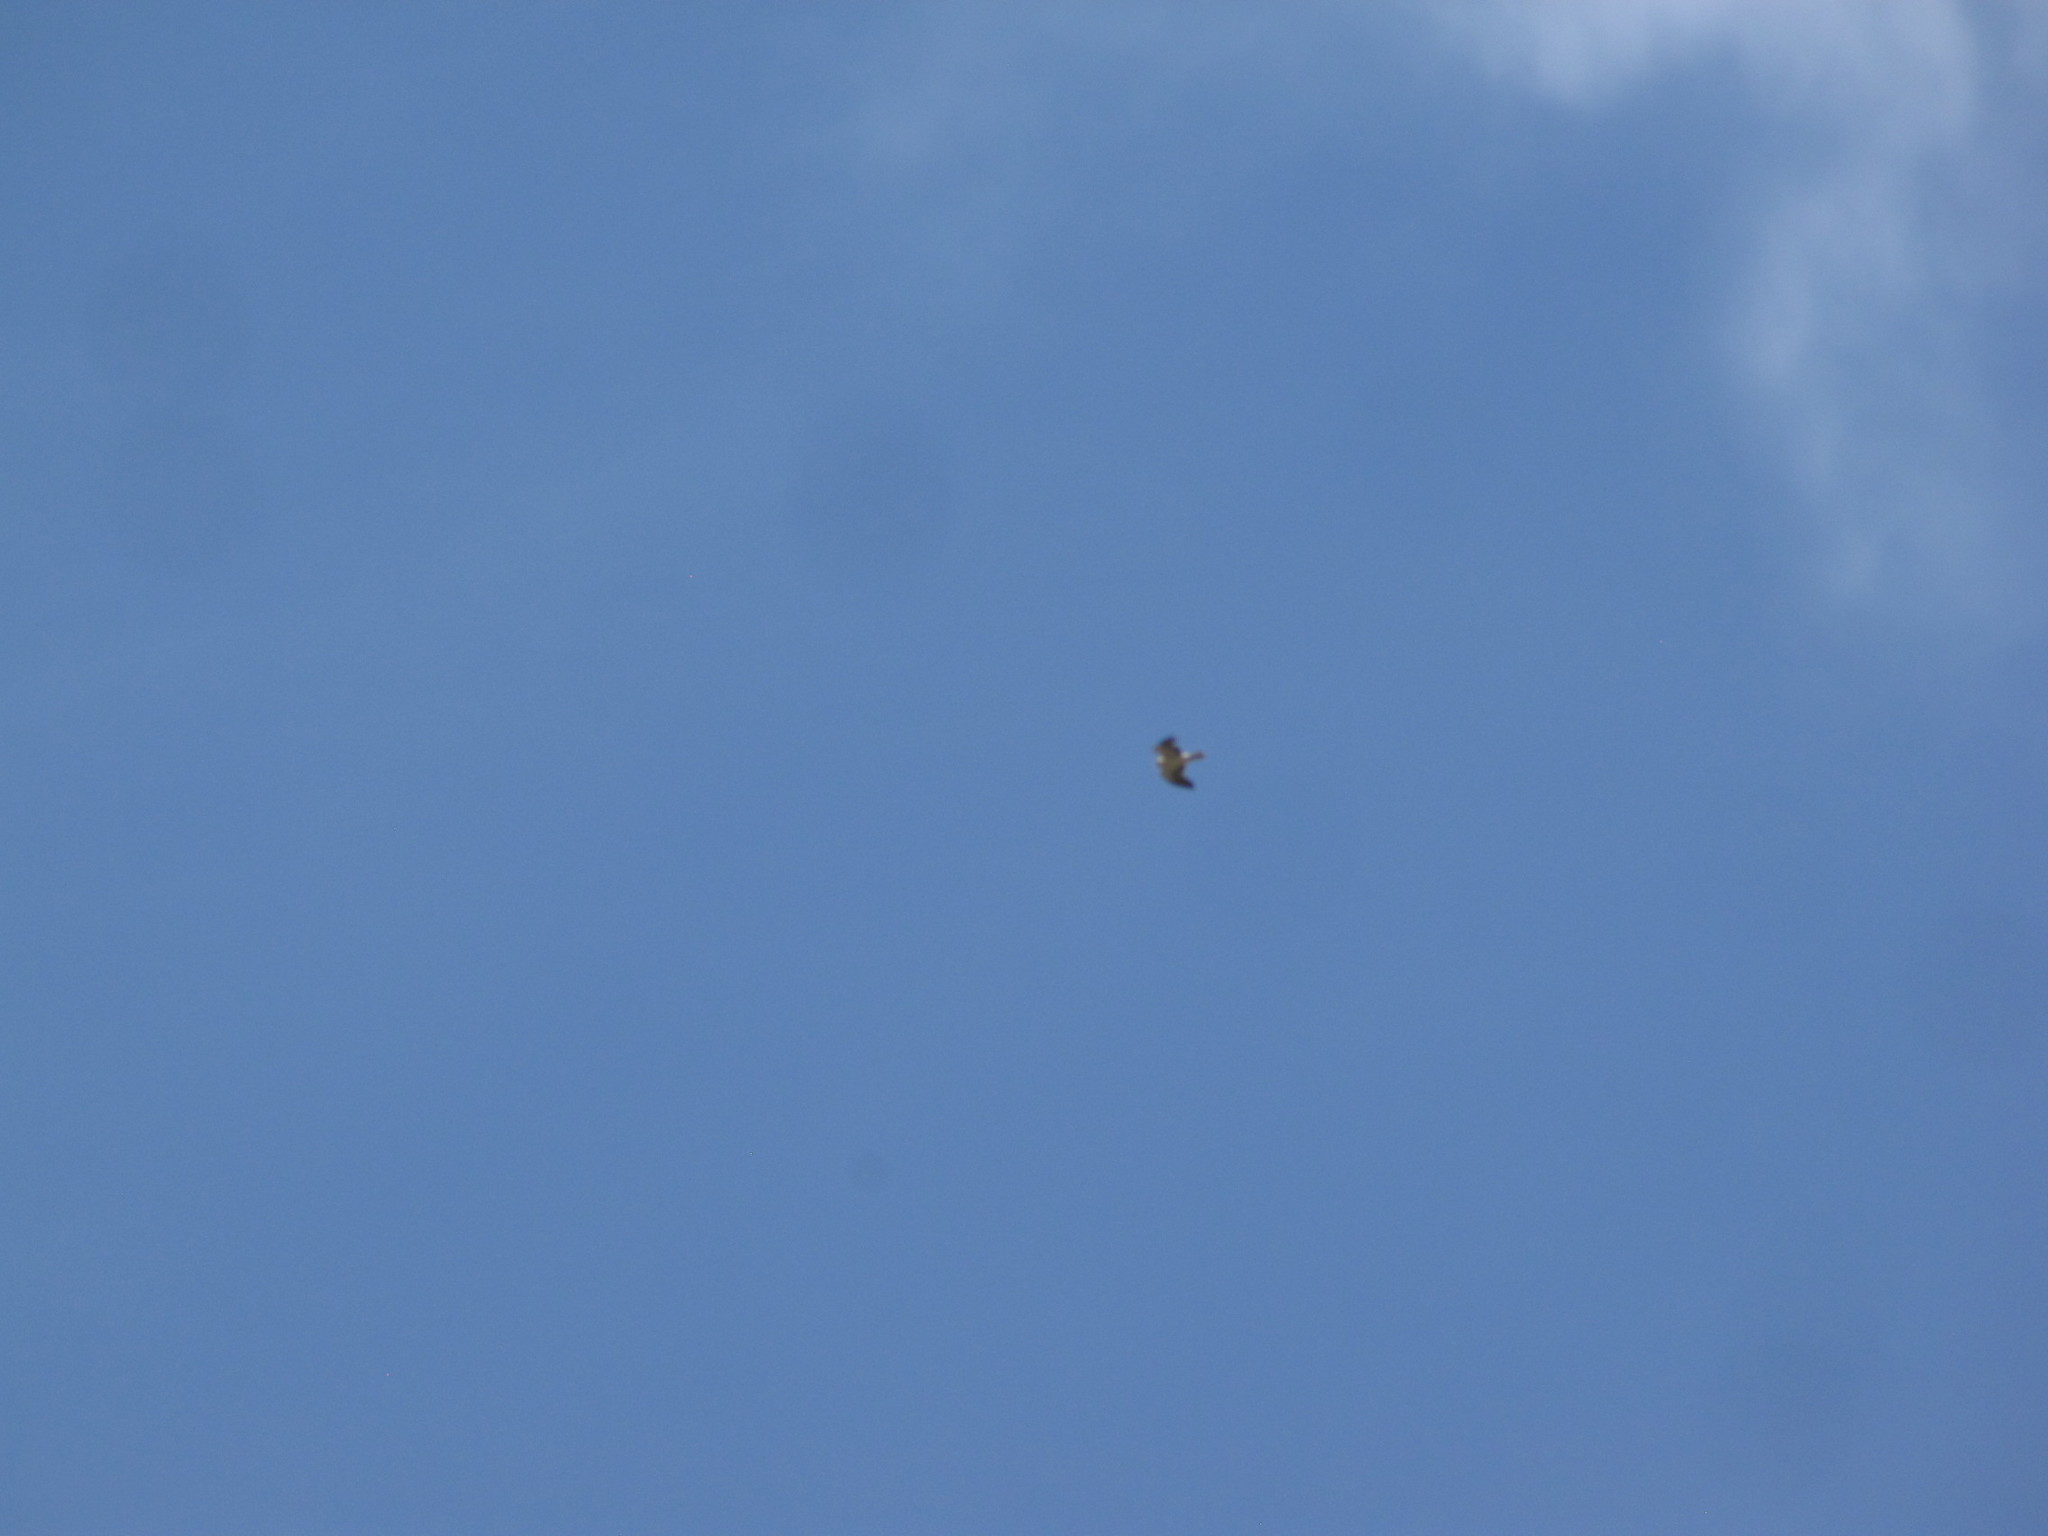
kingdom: Animalia
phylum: Chordata
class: Aves
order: Accipitriformes
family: Accipitridae
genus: Hieraaetus
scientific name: Hieraaetus pennatus
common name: Booted eagle
